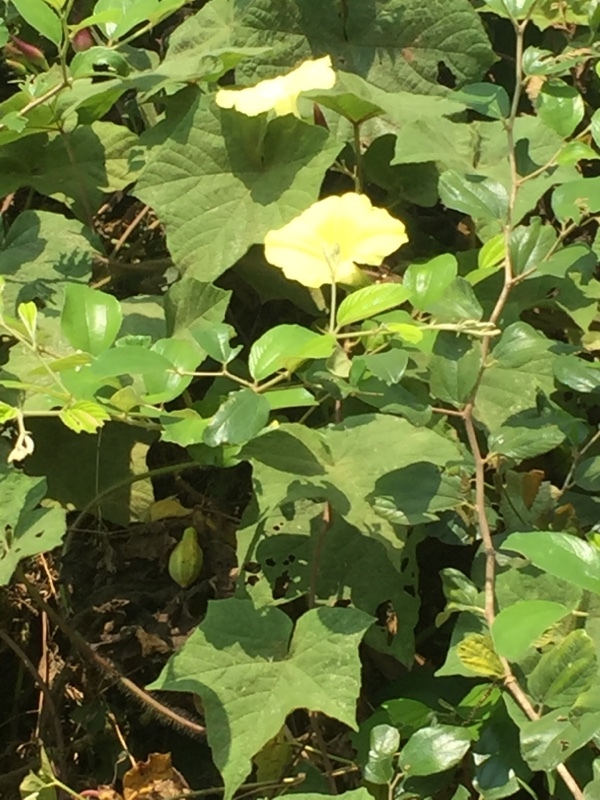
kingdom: Plantae
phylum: Tracheophyta
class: Magnoliopsida
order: Solanales
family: Convolvulaceae
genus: Distimake
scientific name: Distimake
